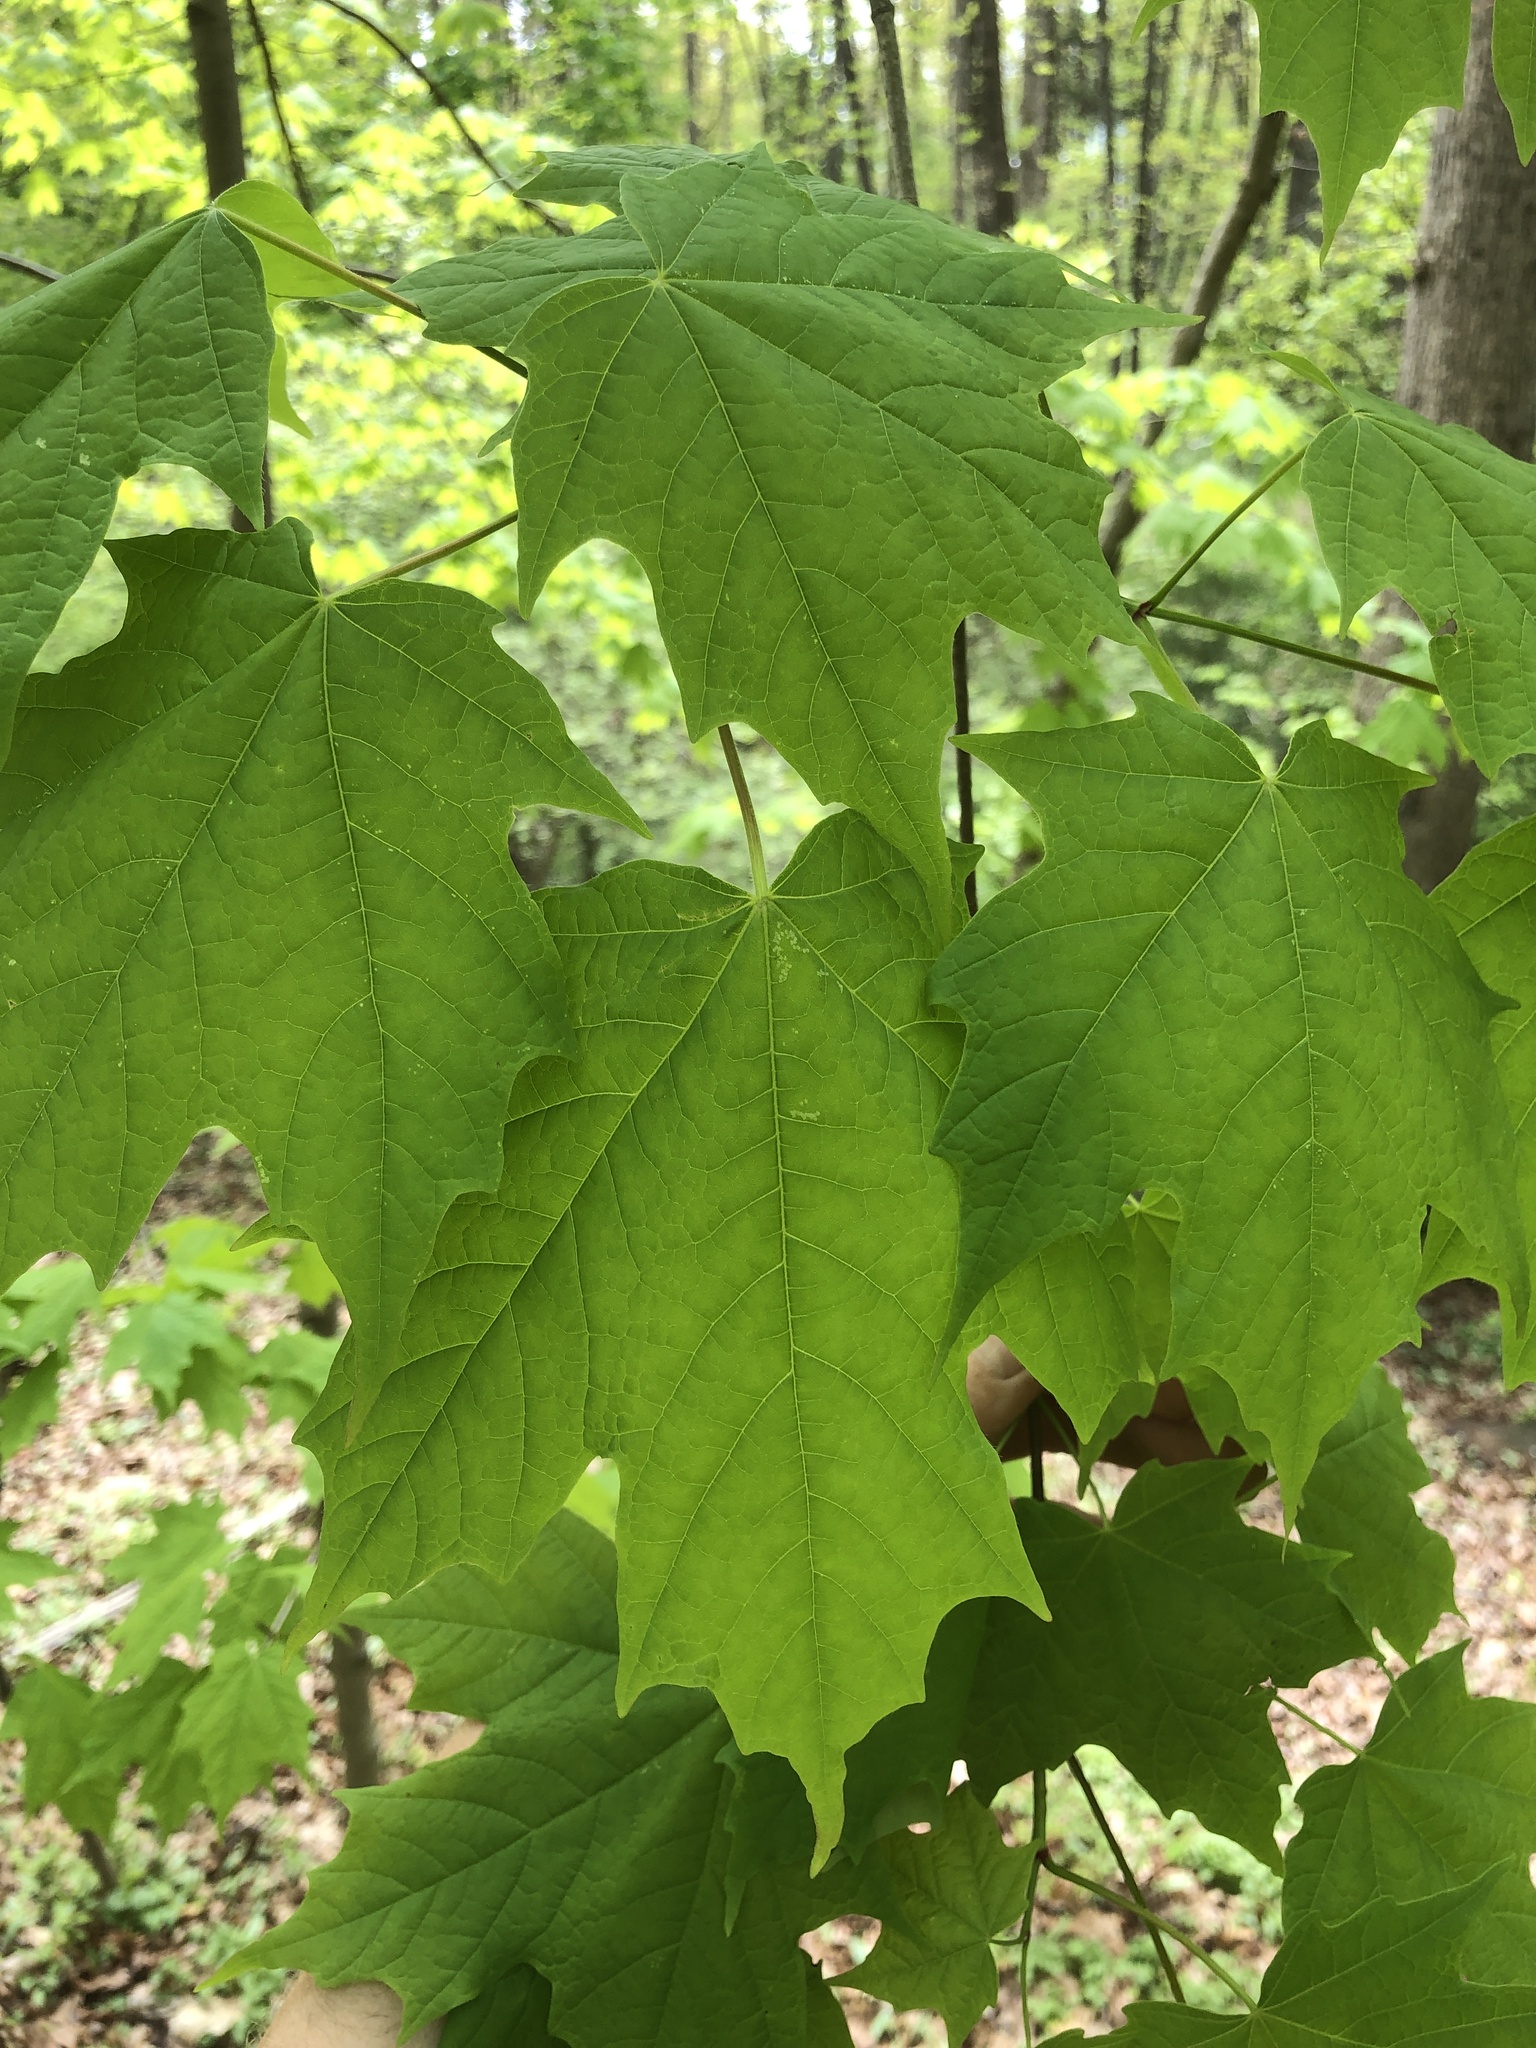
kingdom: Plantae
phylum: Tracheophyta
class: Magnoliopsida
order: Sapindales
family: Sapindaceae
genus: Acer
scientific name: Acer saccharum
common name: Sugar maple
